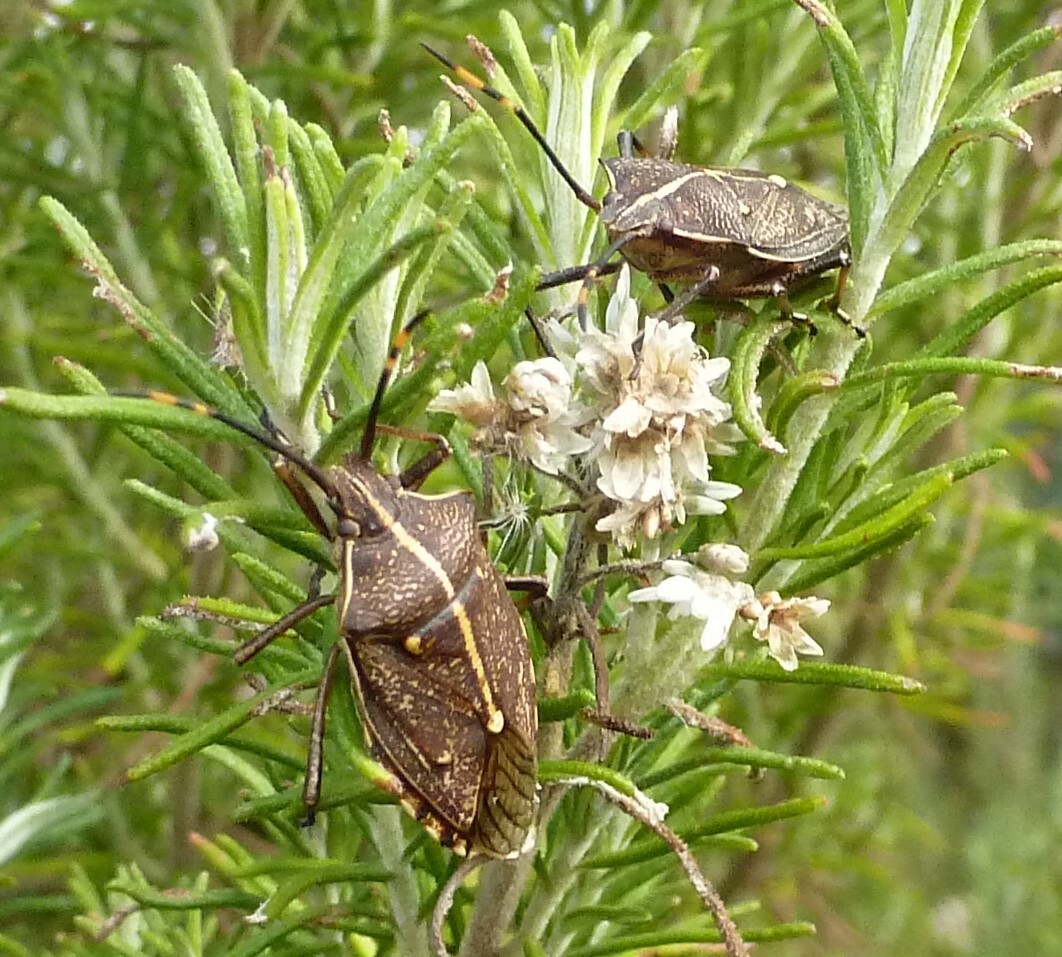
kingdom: Animalia
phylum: Arthropoda
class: Insecta
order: Hemiptera
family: Pentatomidae
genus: Omyta
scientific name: Omyta centrolineata
